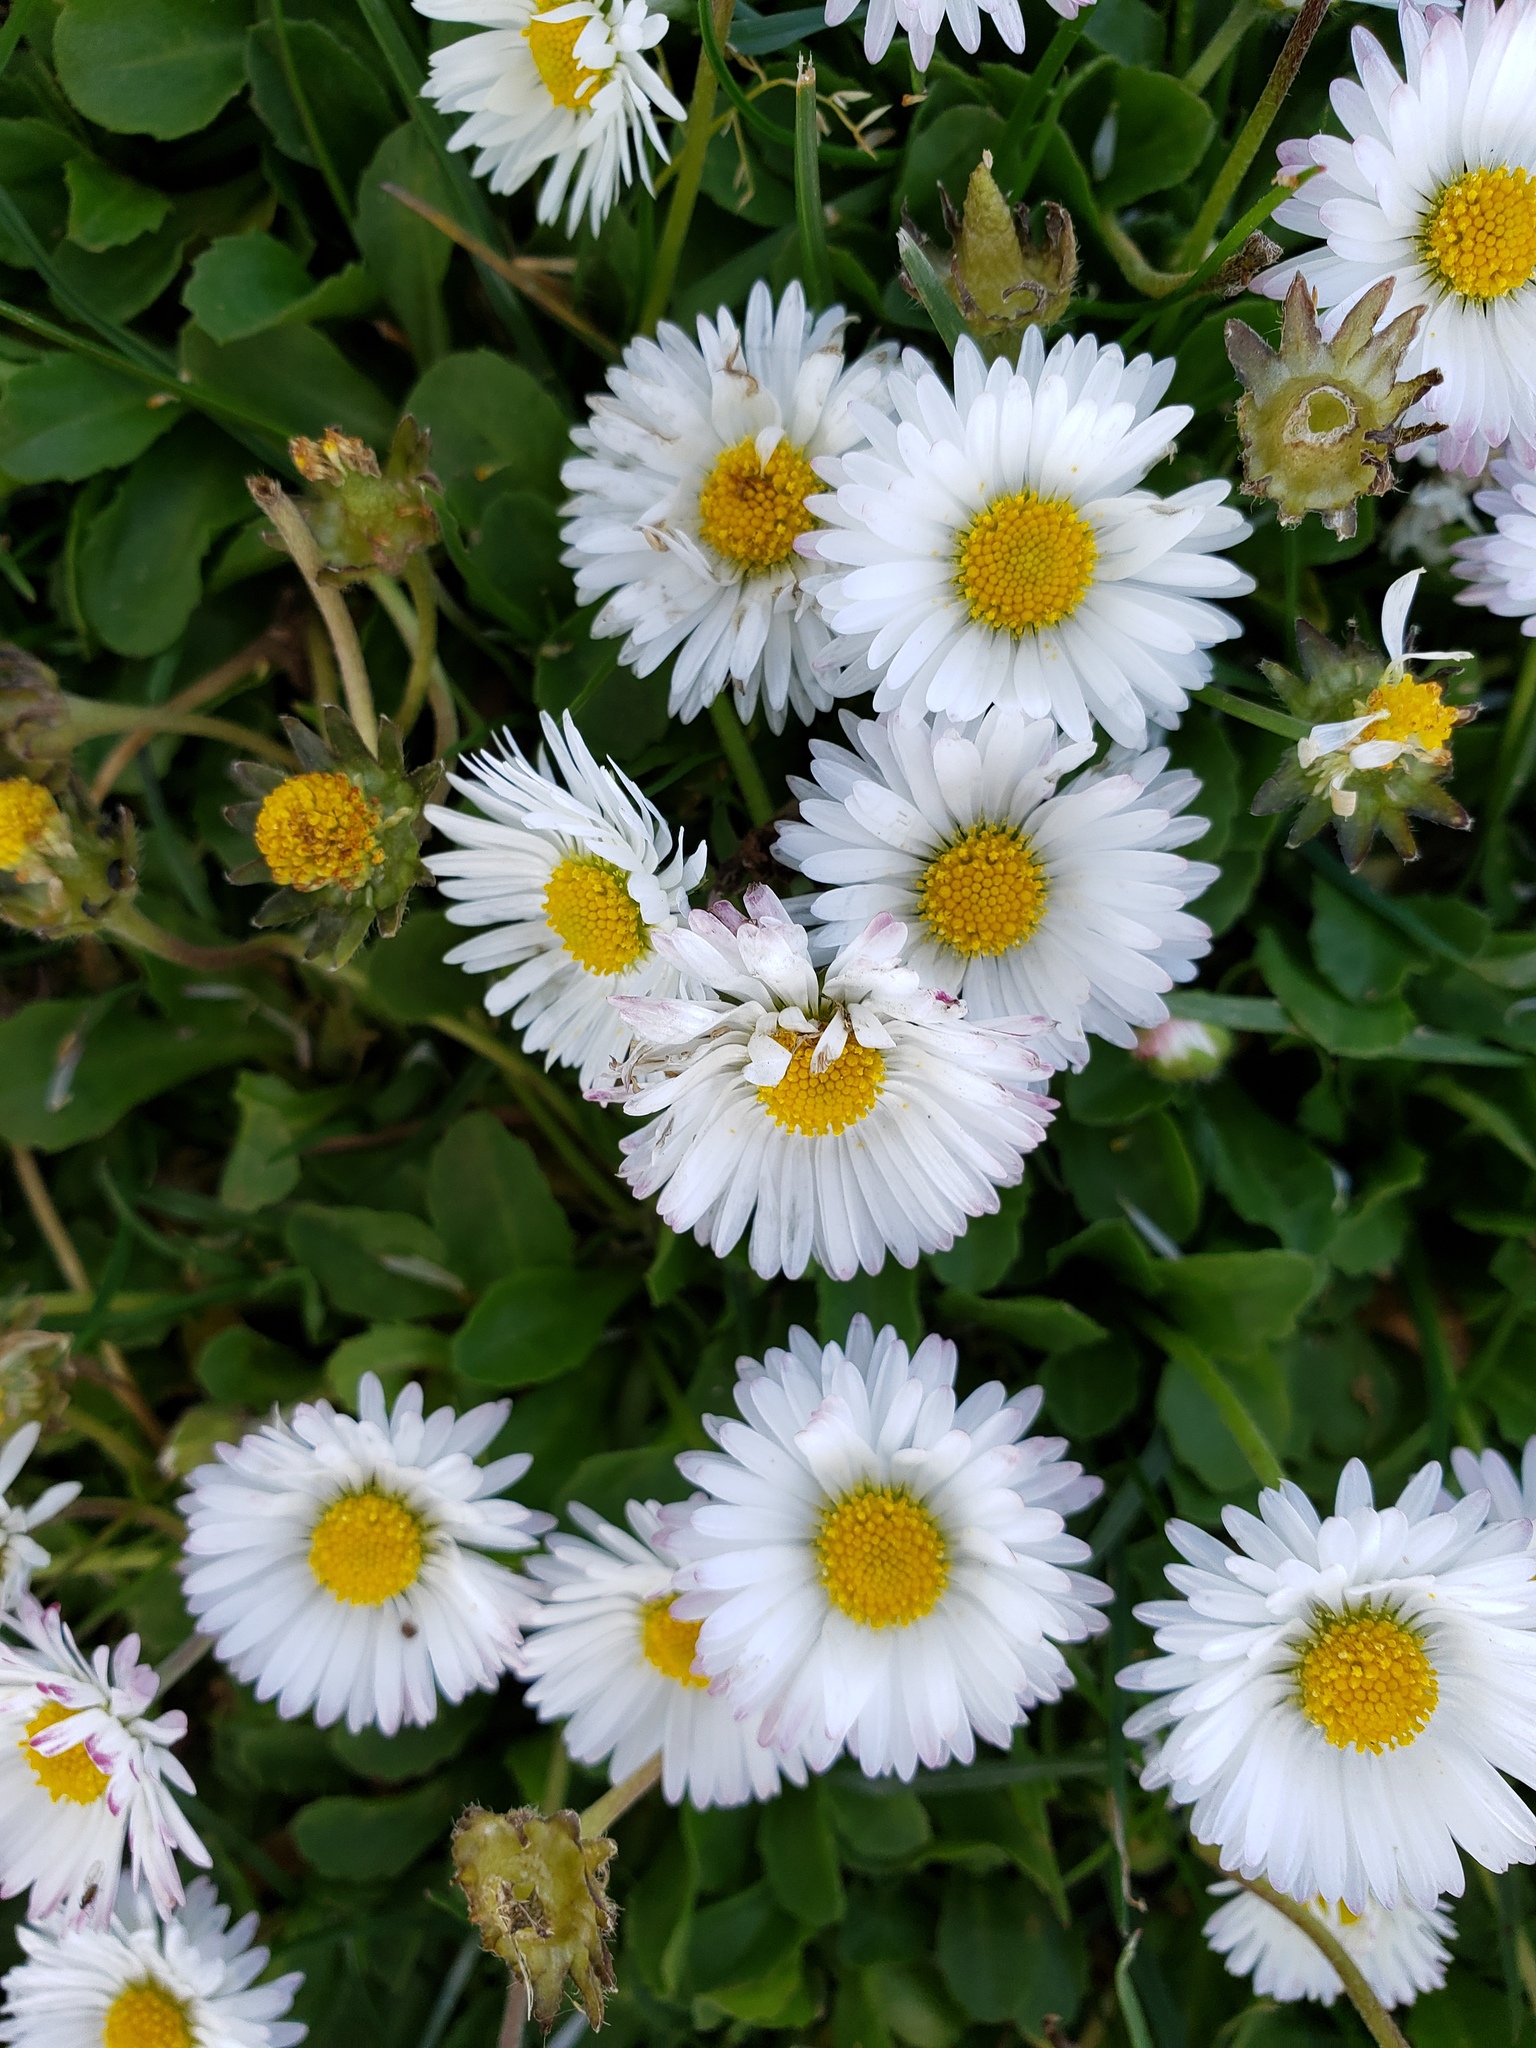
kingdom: Plantae
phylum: Tracheophyta
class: Magnoliopsida
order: Asterales
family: Asteraceae
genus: Bellis
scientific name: Bellis perennis
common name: Lawndaisy
